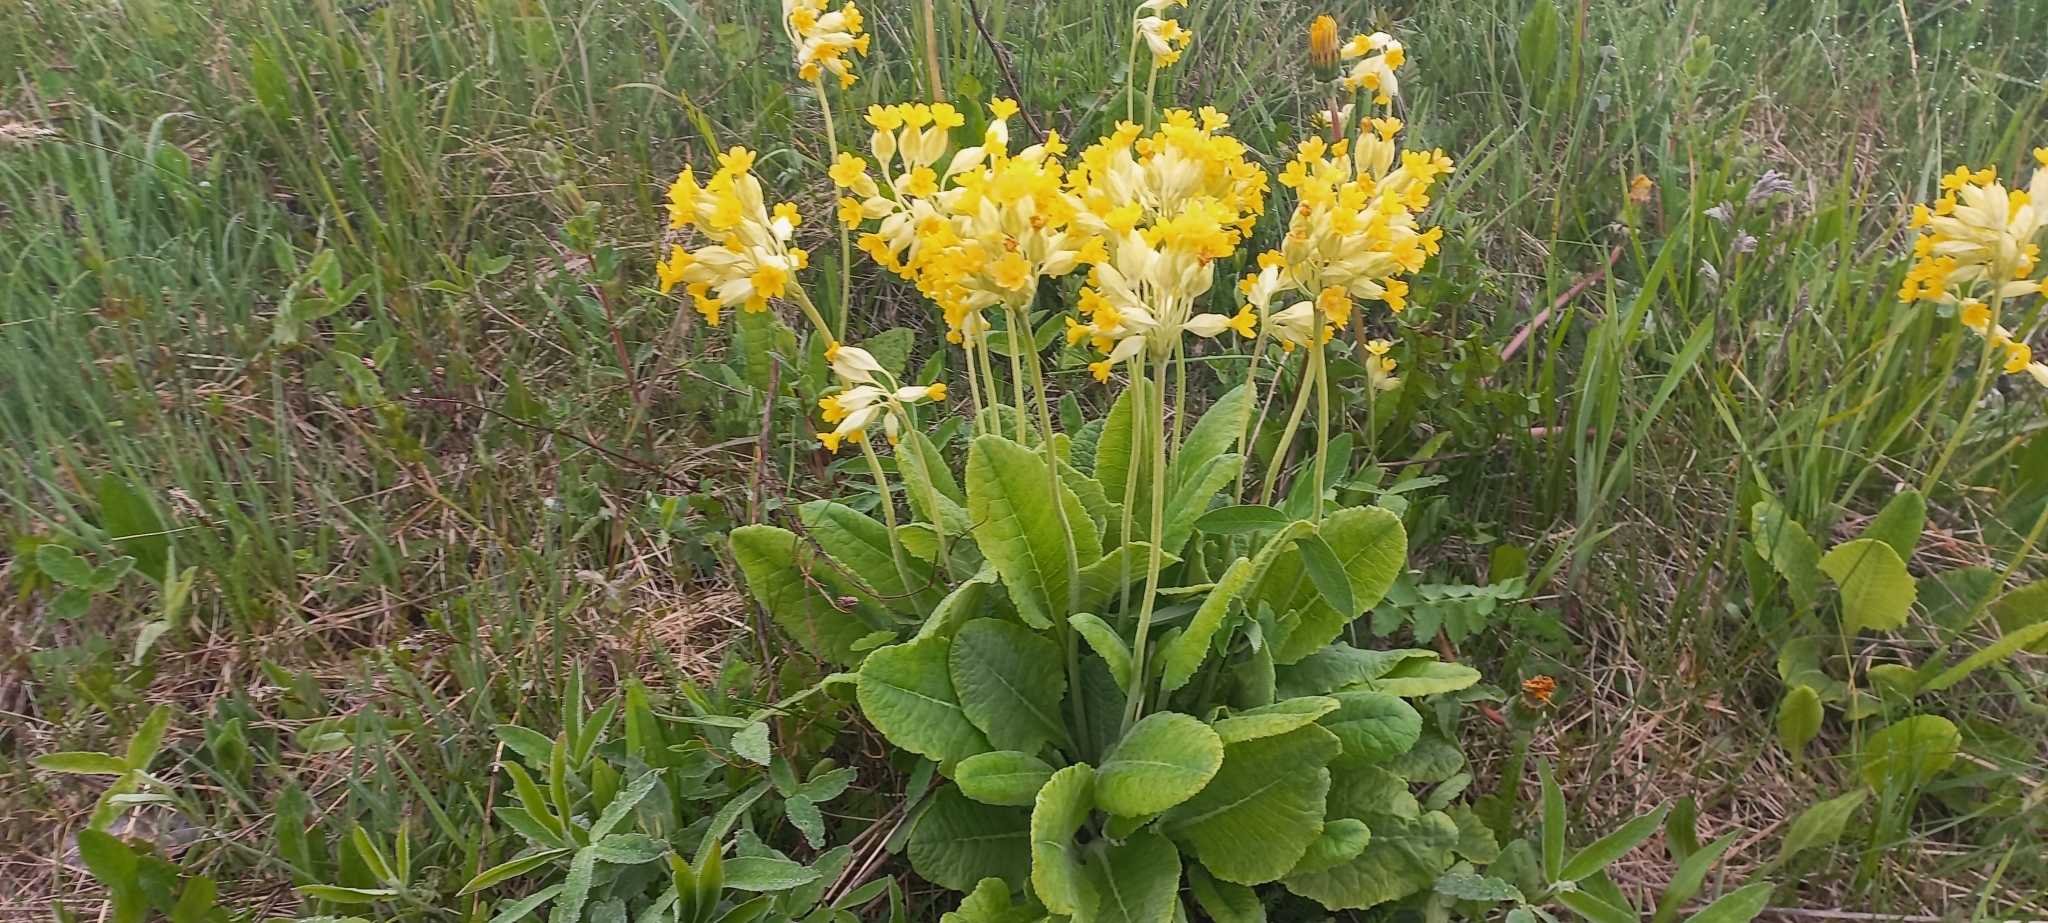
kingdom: Plantae
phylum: Tracheophyta
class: Magnoliopsida
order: Ericales
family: Primulaceae
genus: Primula
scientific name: Primula veris
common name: Cowslip
